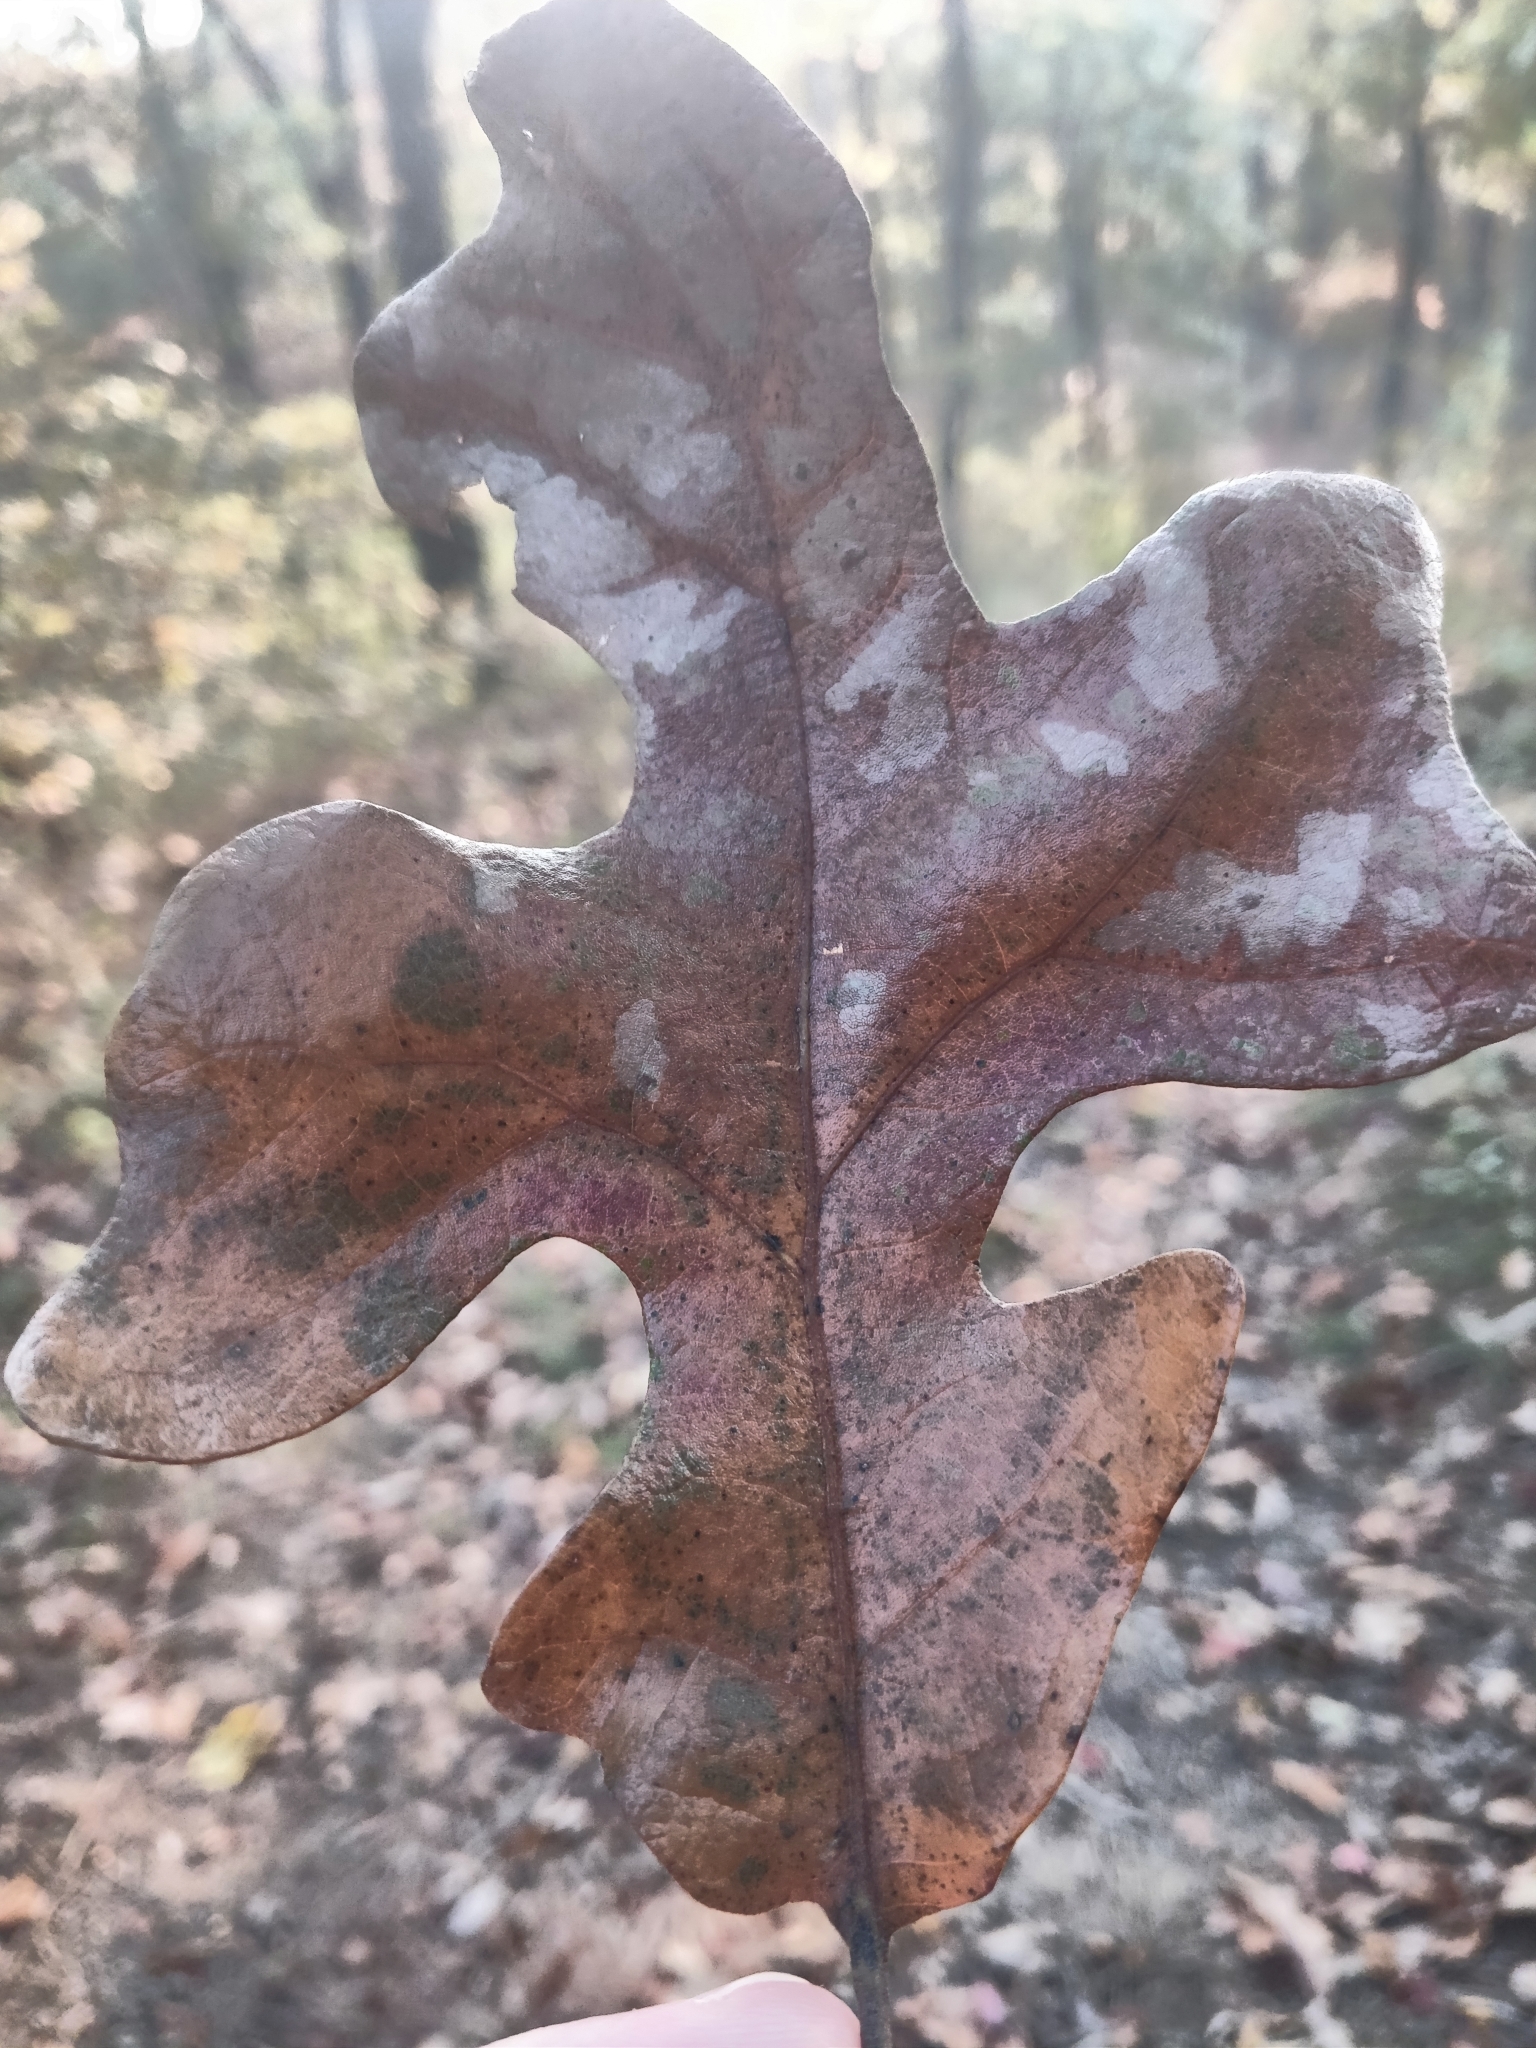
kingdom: Plantae
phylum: Tracheophyta
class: Magnoliopsida
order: Fagales
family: Fagaceae
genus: Quercus
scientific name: Quercus stellata
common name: Post oak
